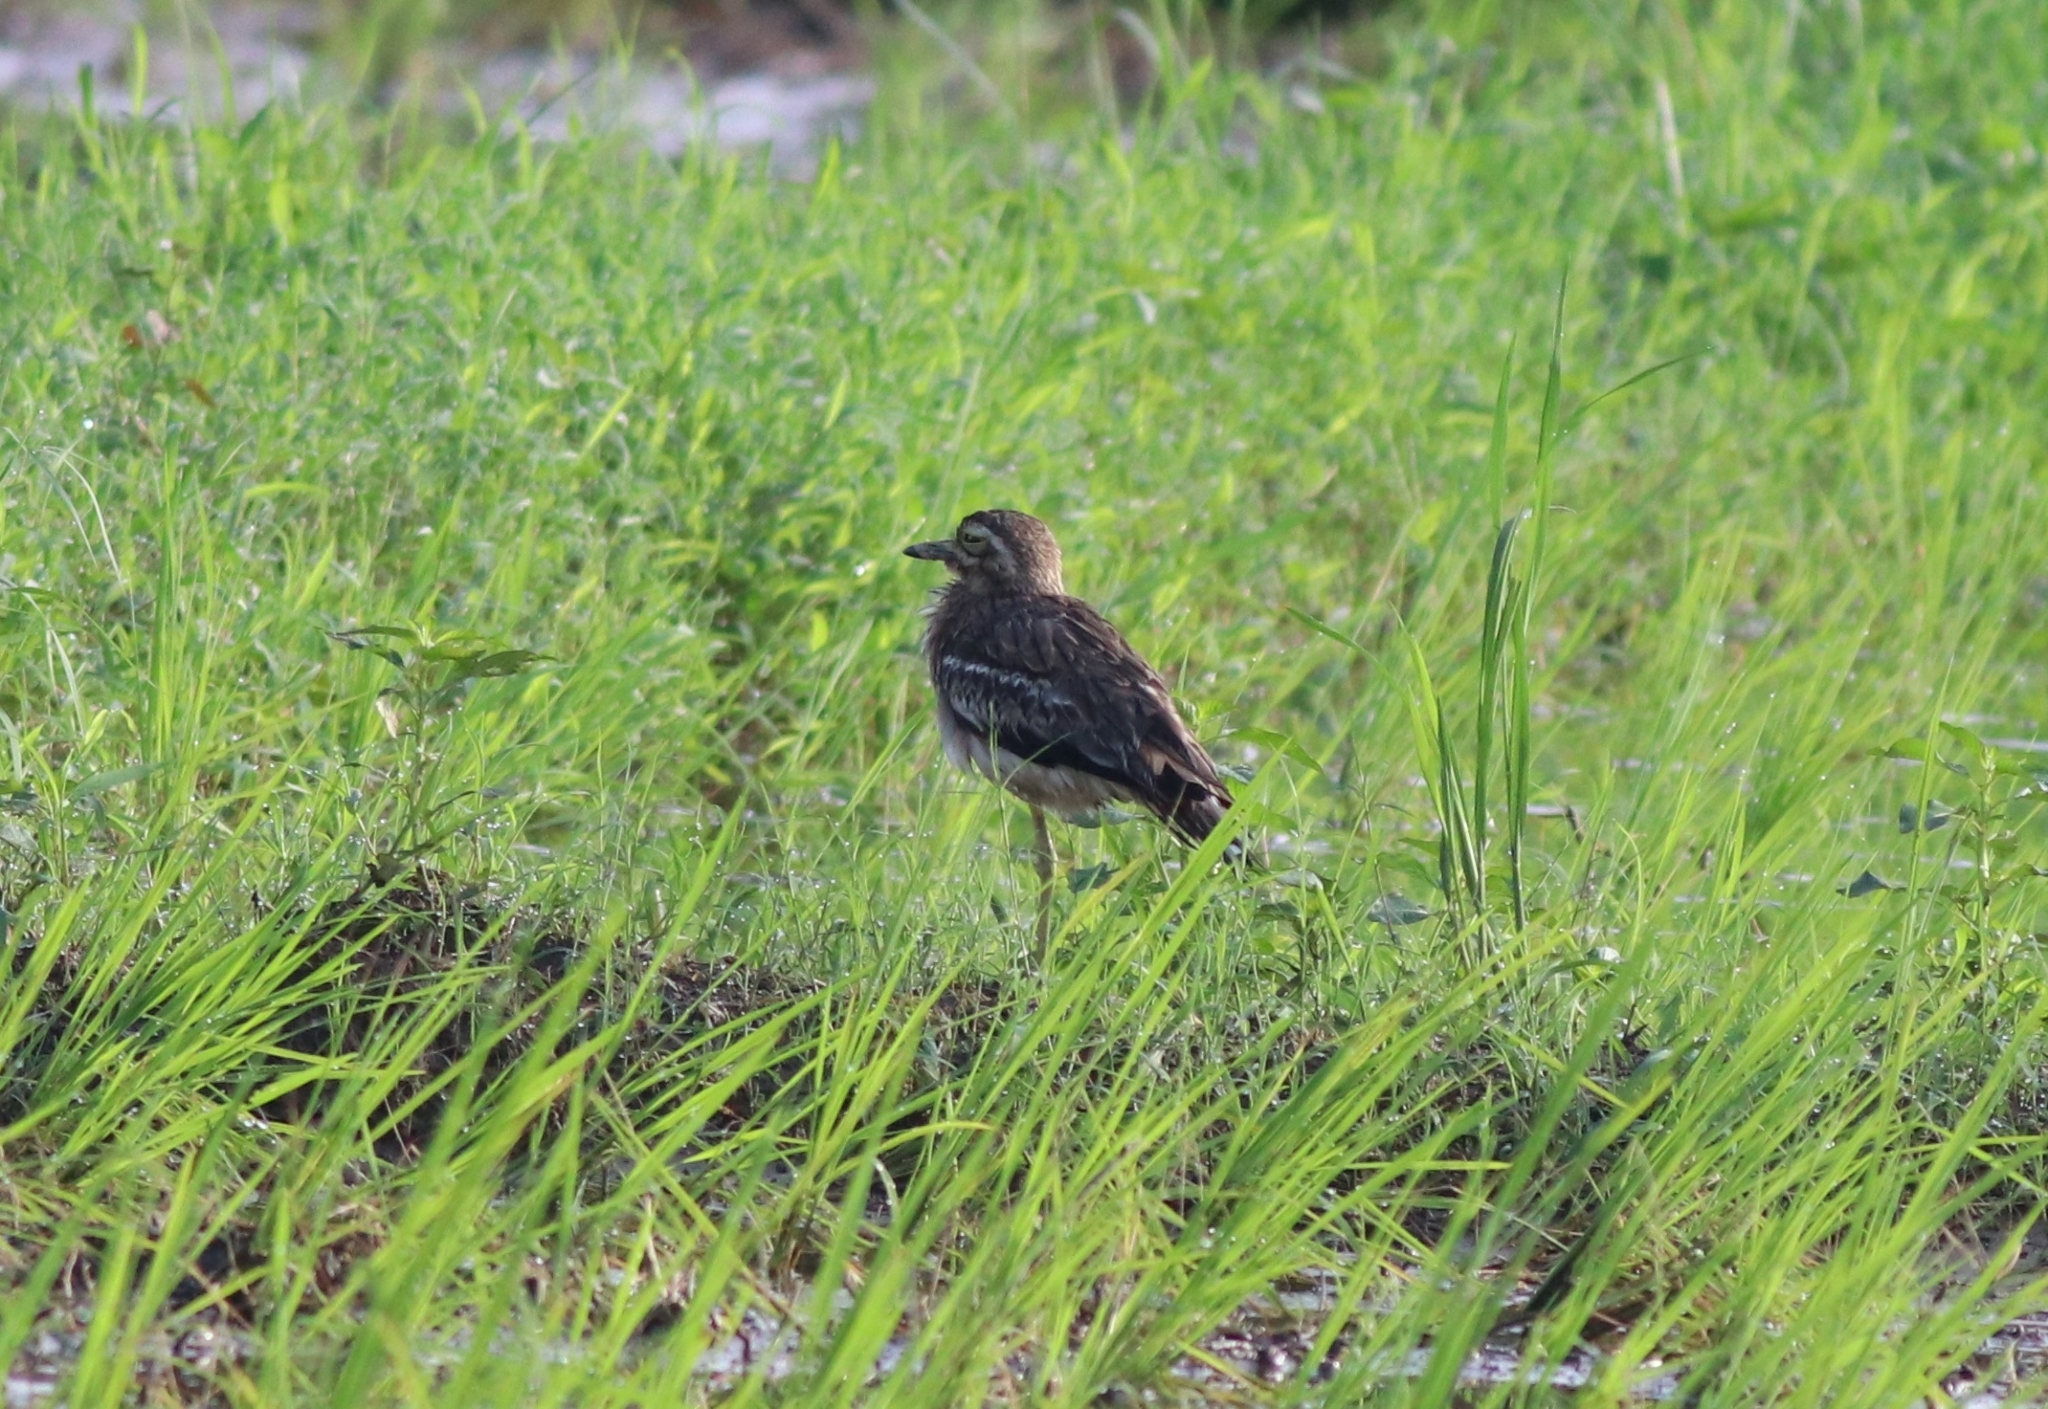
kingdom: Animalia
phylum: Chordata
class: Aves
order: Charadriiformes
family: Burhinidae
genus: Burhinus
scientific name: Burhinus indicus
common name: Indian thick-knee
